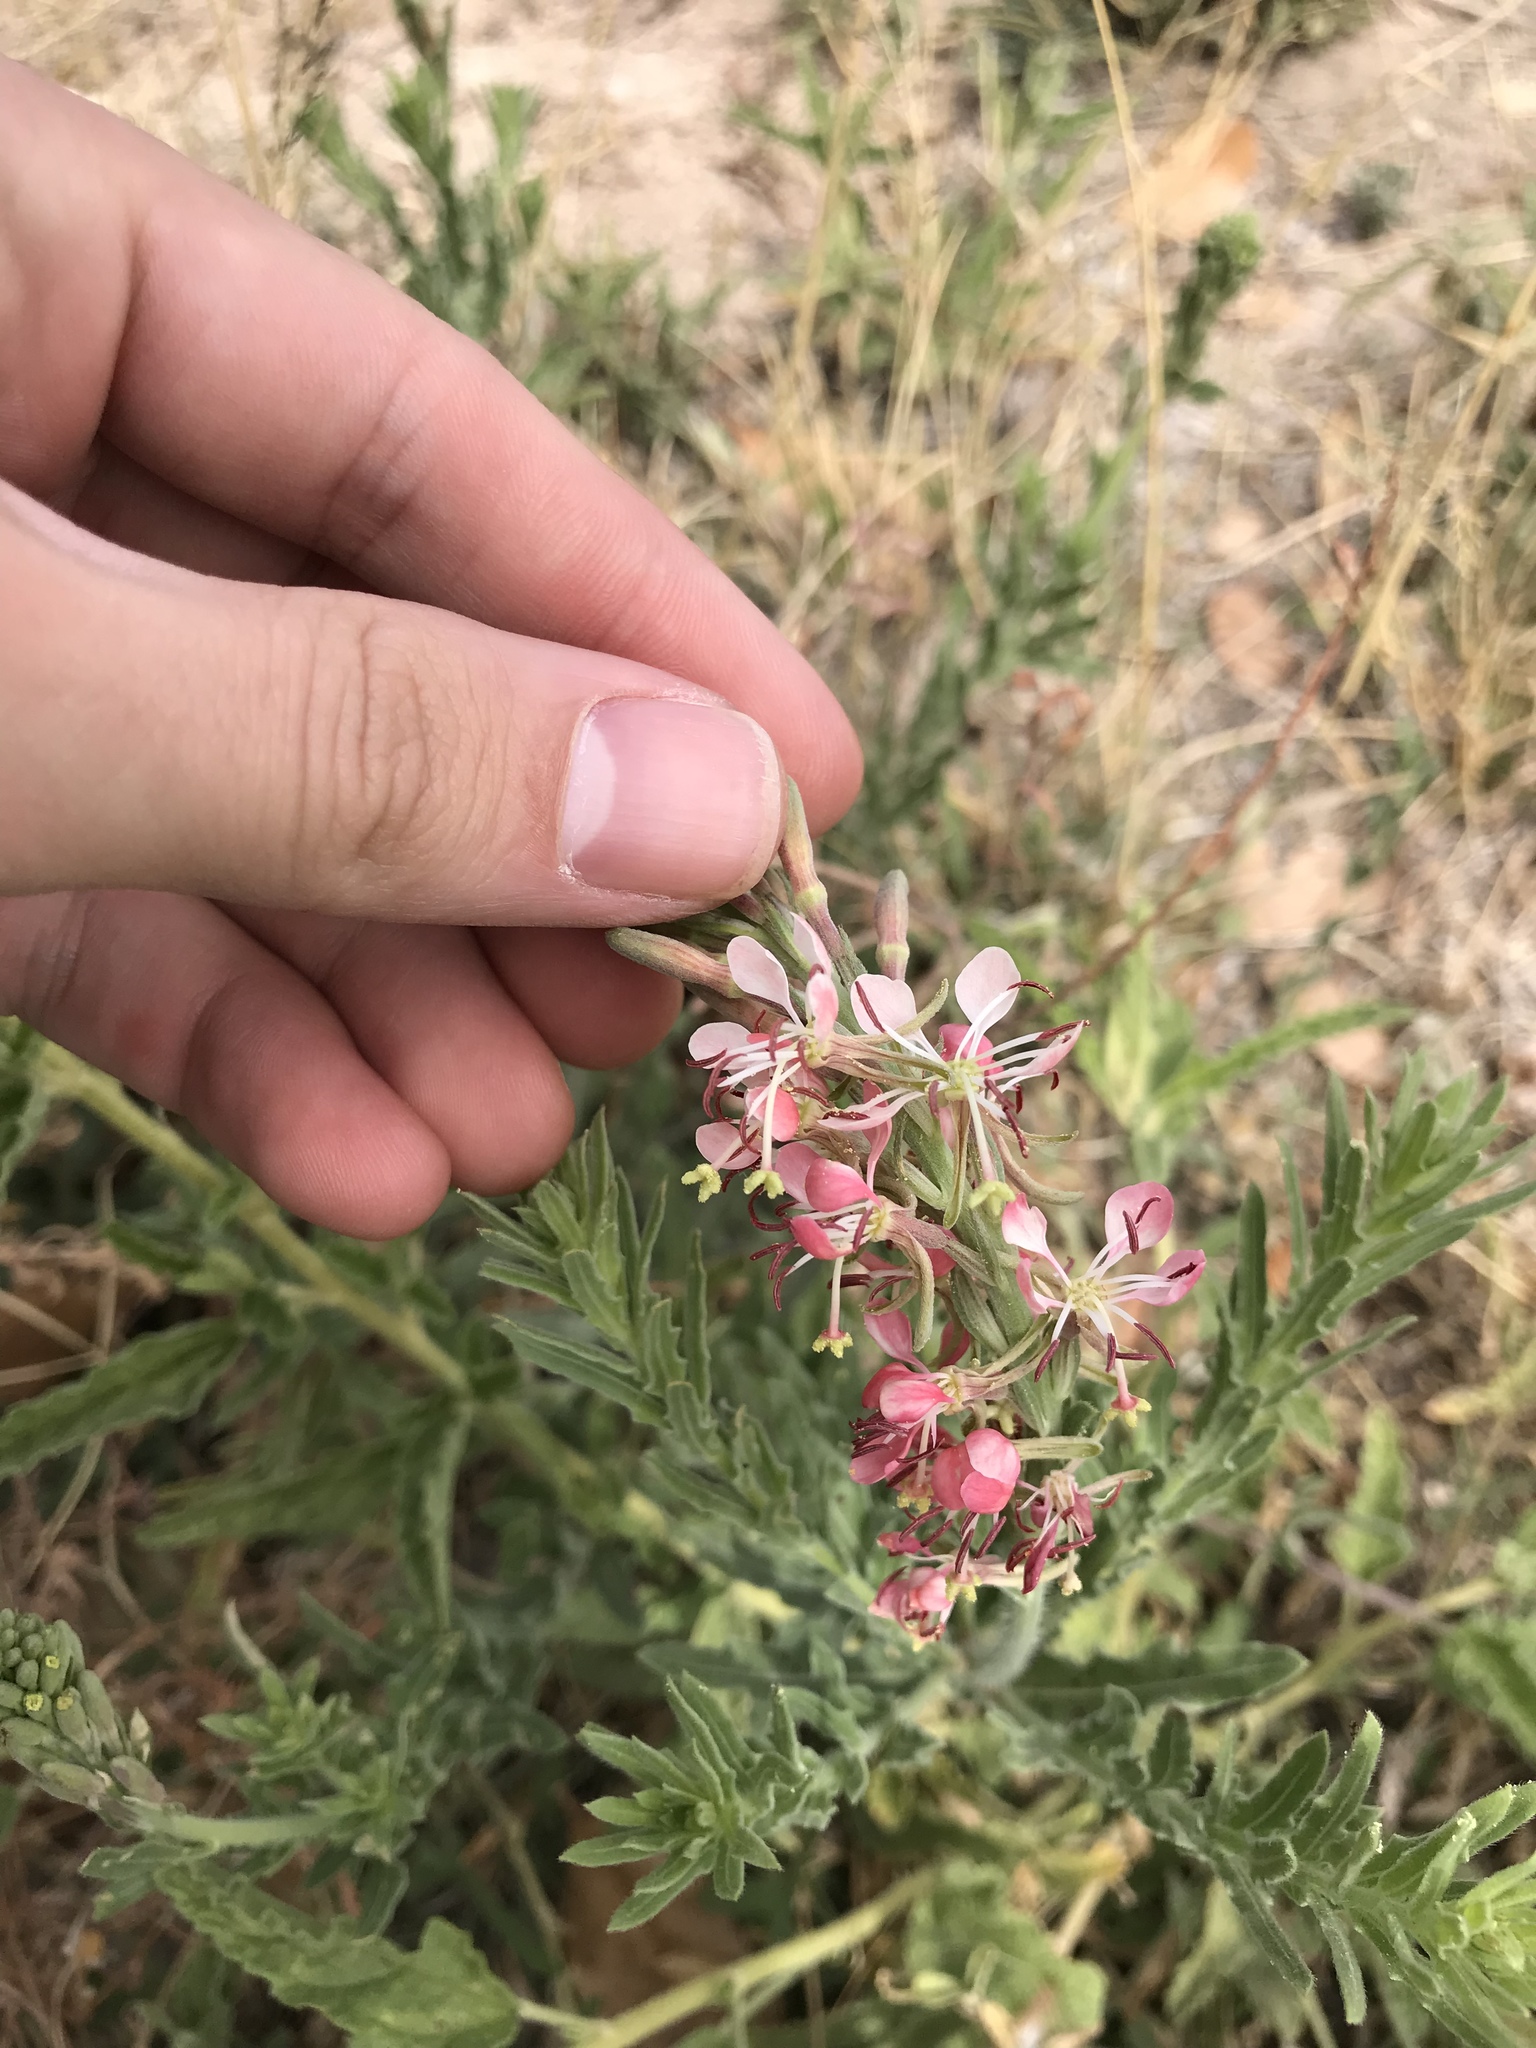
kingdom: Plantae
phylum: Tracheophyta
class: Magnoliopsida
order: Myrtales
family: Onagraceae
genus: Oenothera
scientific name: Oenothera suffrutescens
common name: Scarlet beeblossom
